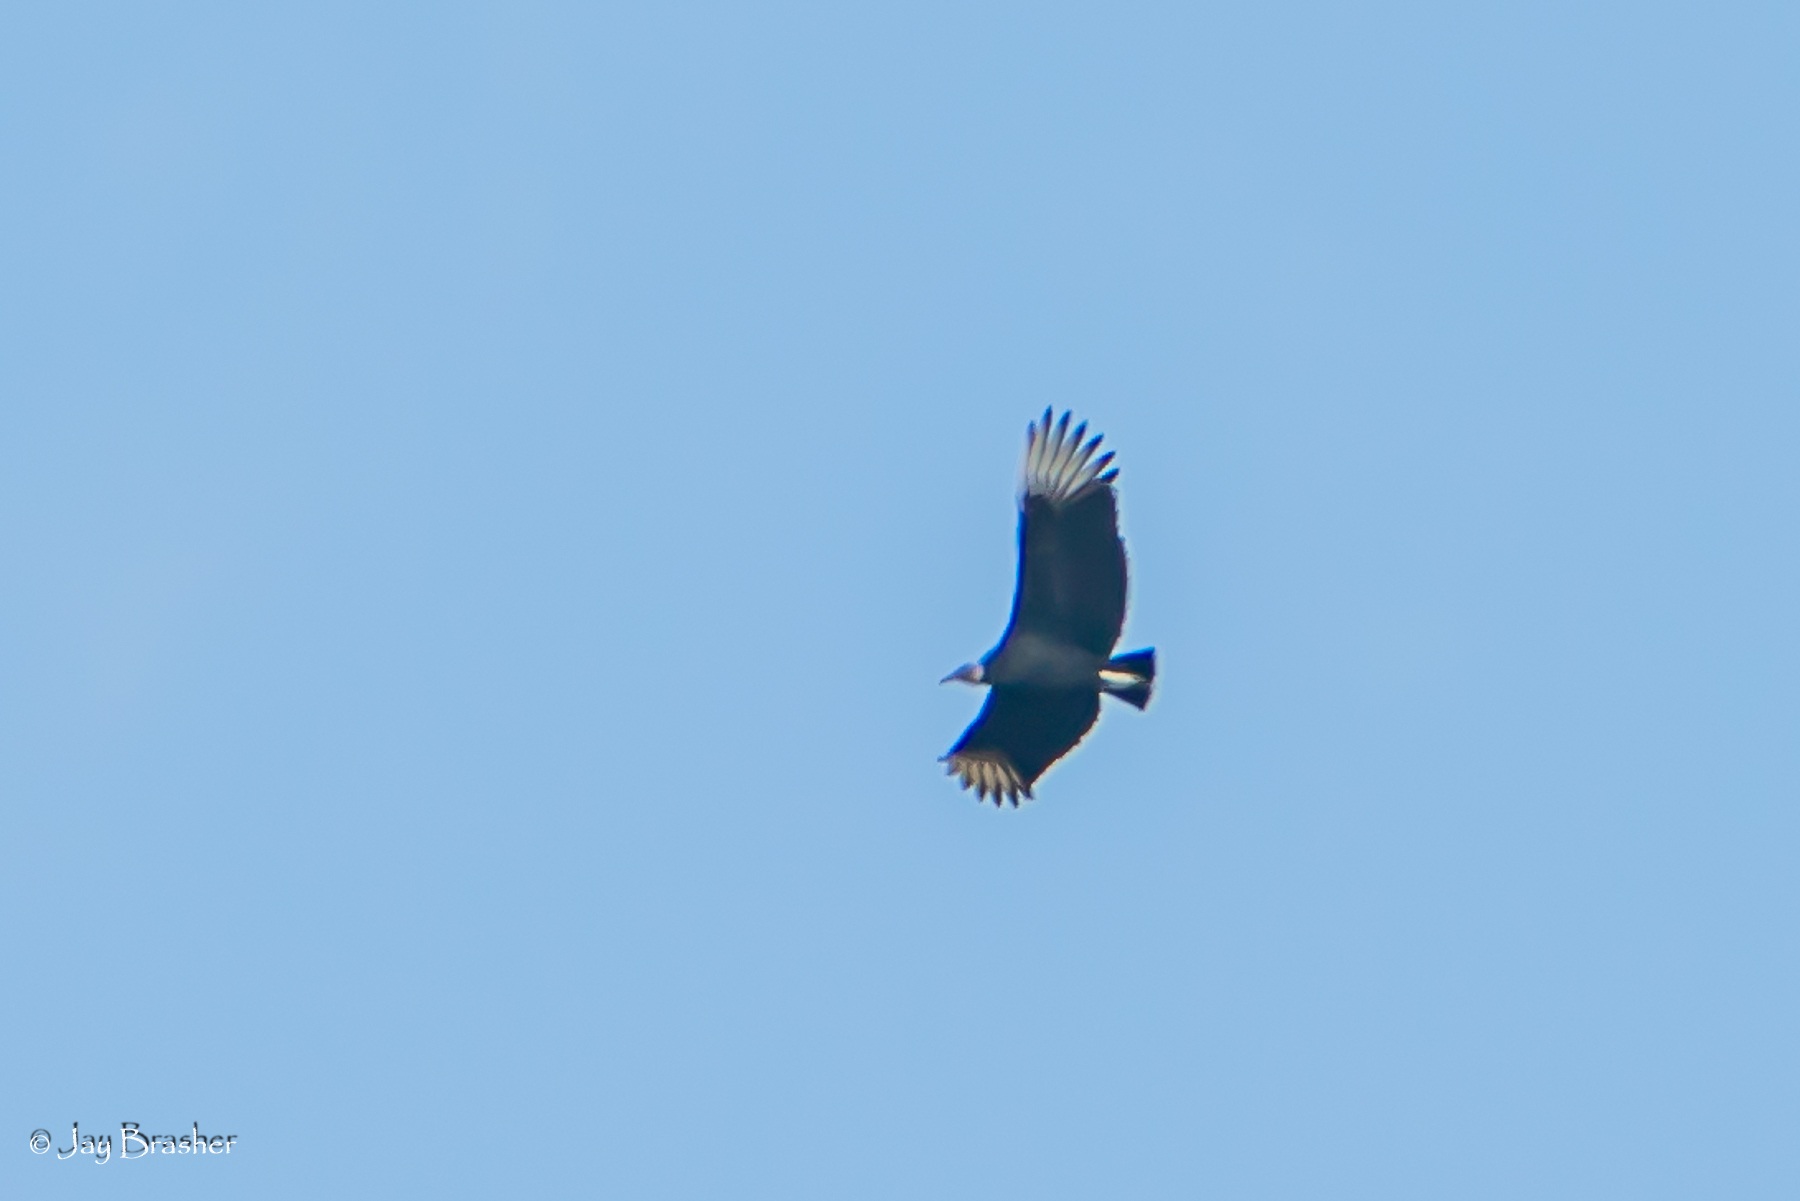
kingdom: Animalia
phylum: Chordata
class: Aves
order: Accipitriformes
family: Cathartidae
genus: Coragyps
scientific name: Coragyps atratus
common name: Black vulture
